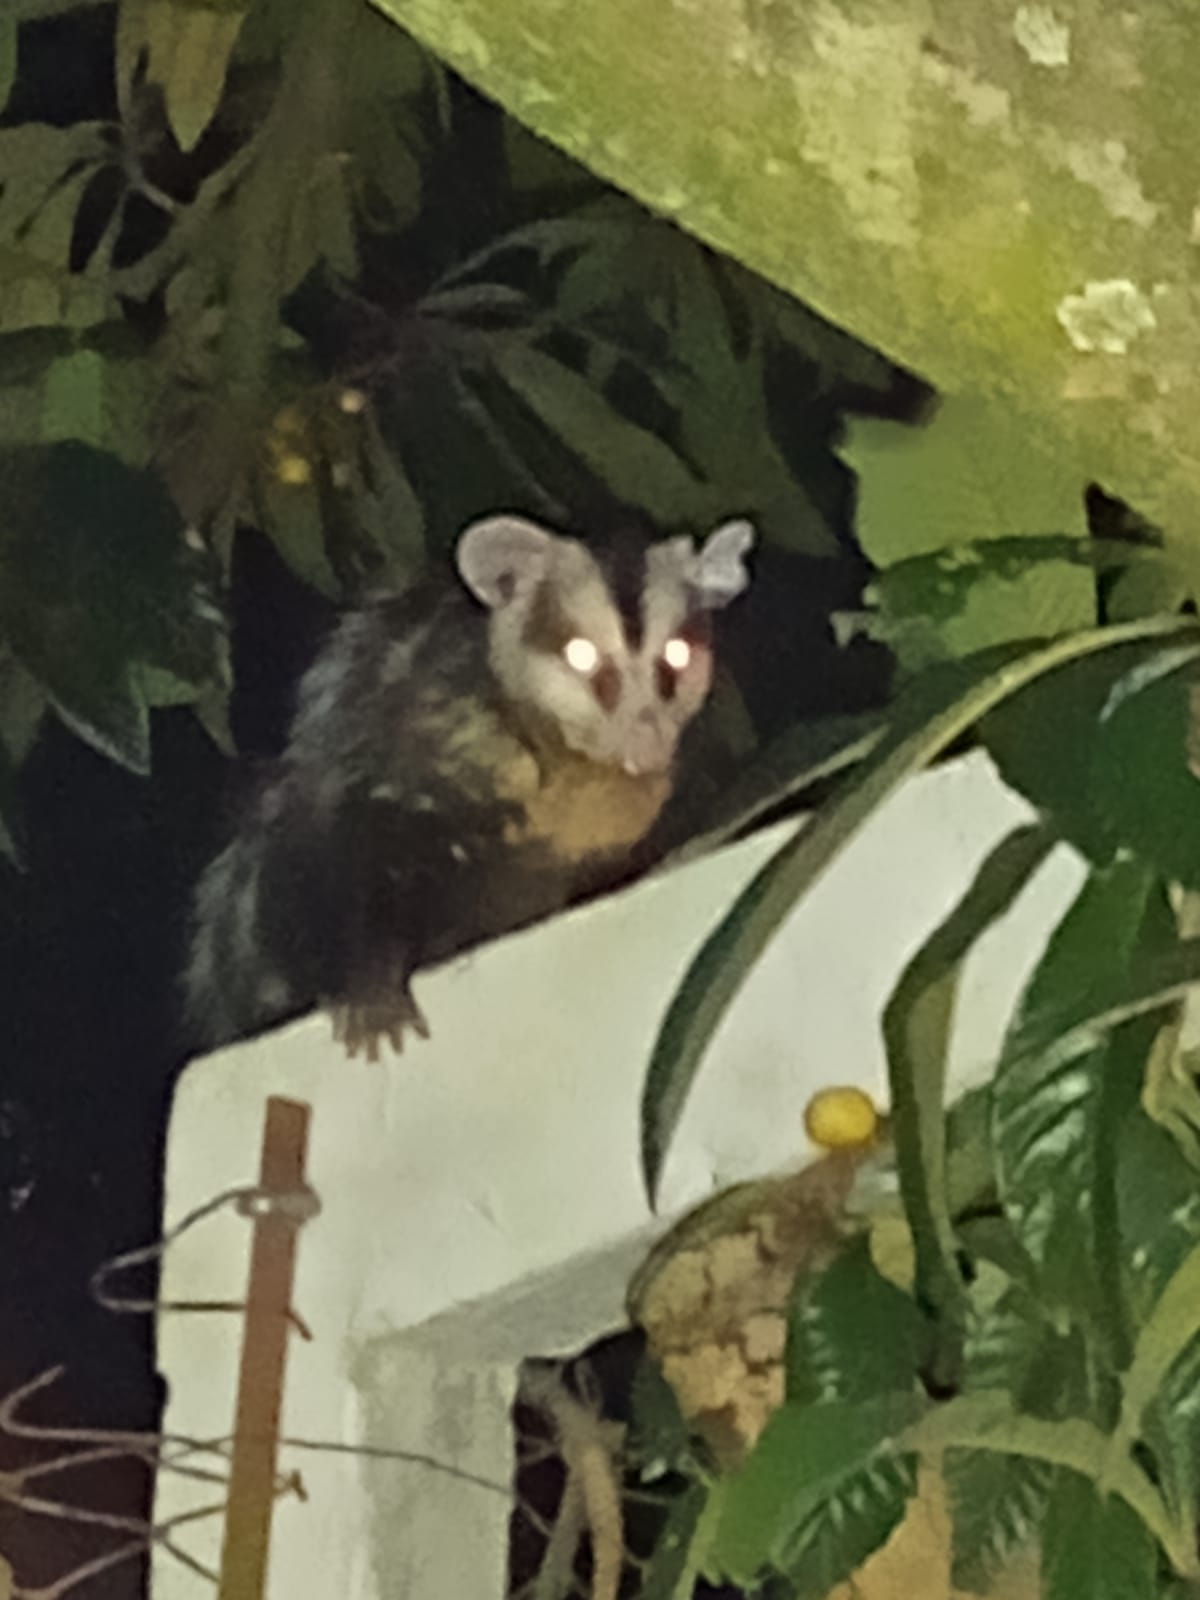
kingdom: Animalia
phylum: Chordata
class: Mammalia
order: Didelphimorphia
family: Didelphidae
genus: Didelphis
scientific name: Didelphis albiventris
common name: White-eared opossum
